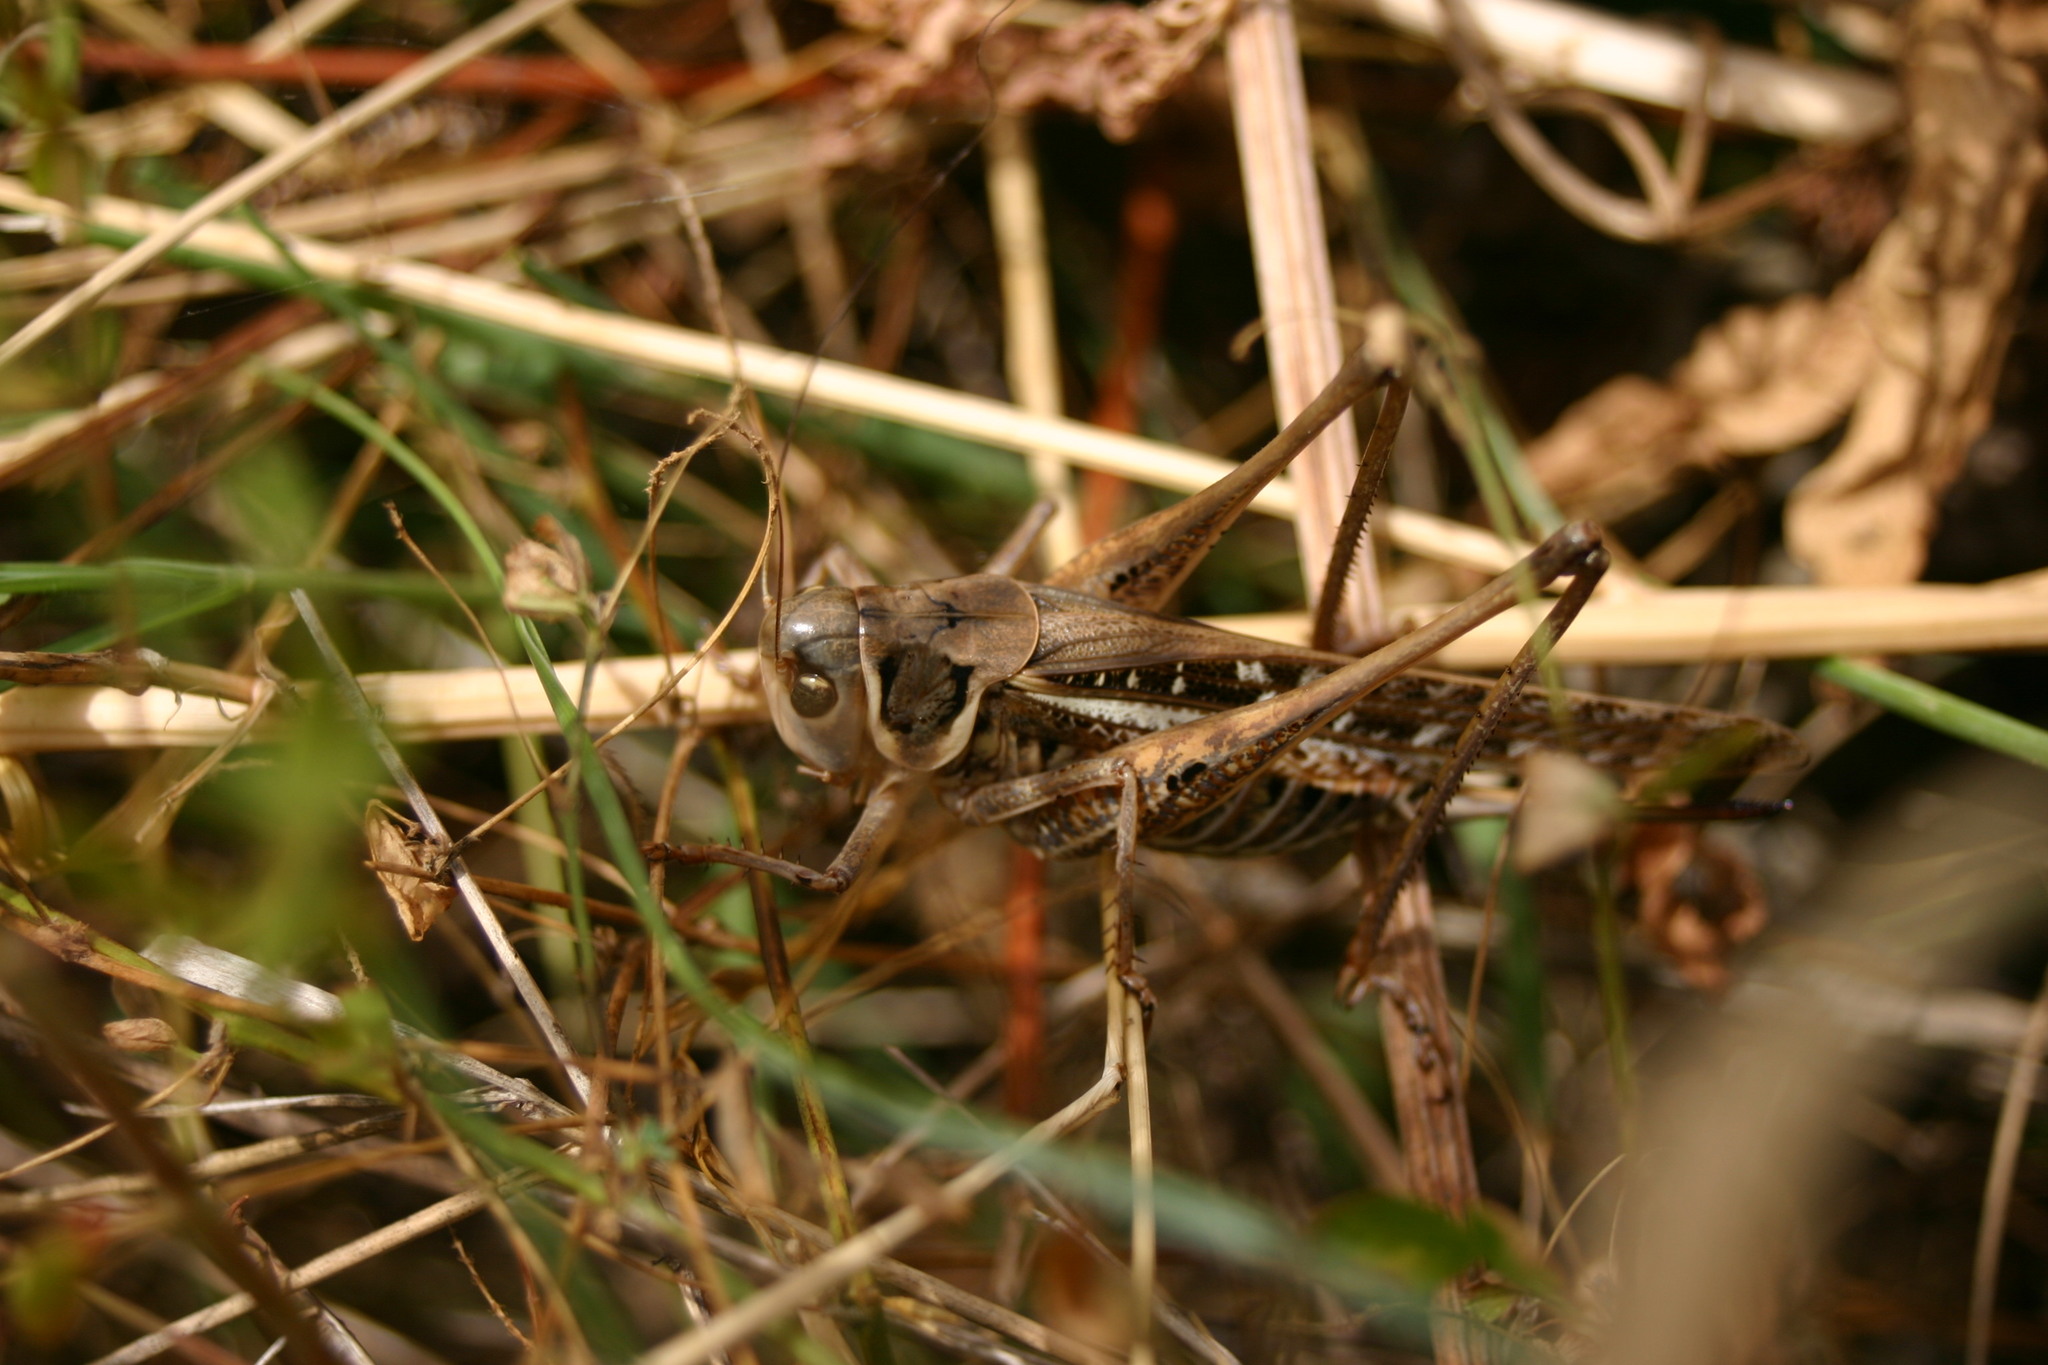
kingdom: Animalia
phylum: Arthropoda
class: Insecta
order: Orthoptera
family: Tettigoniidae
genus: Decticus
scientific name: Decticus albifrons
